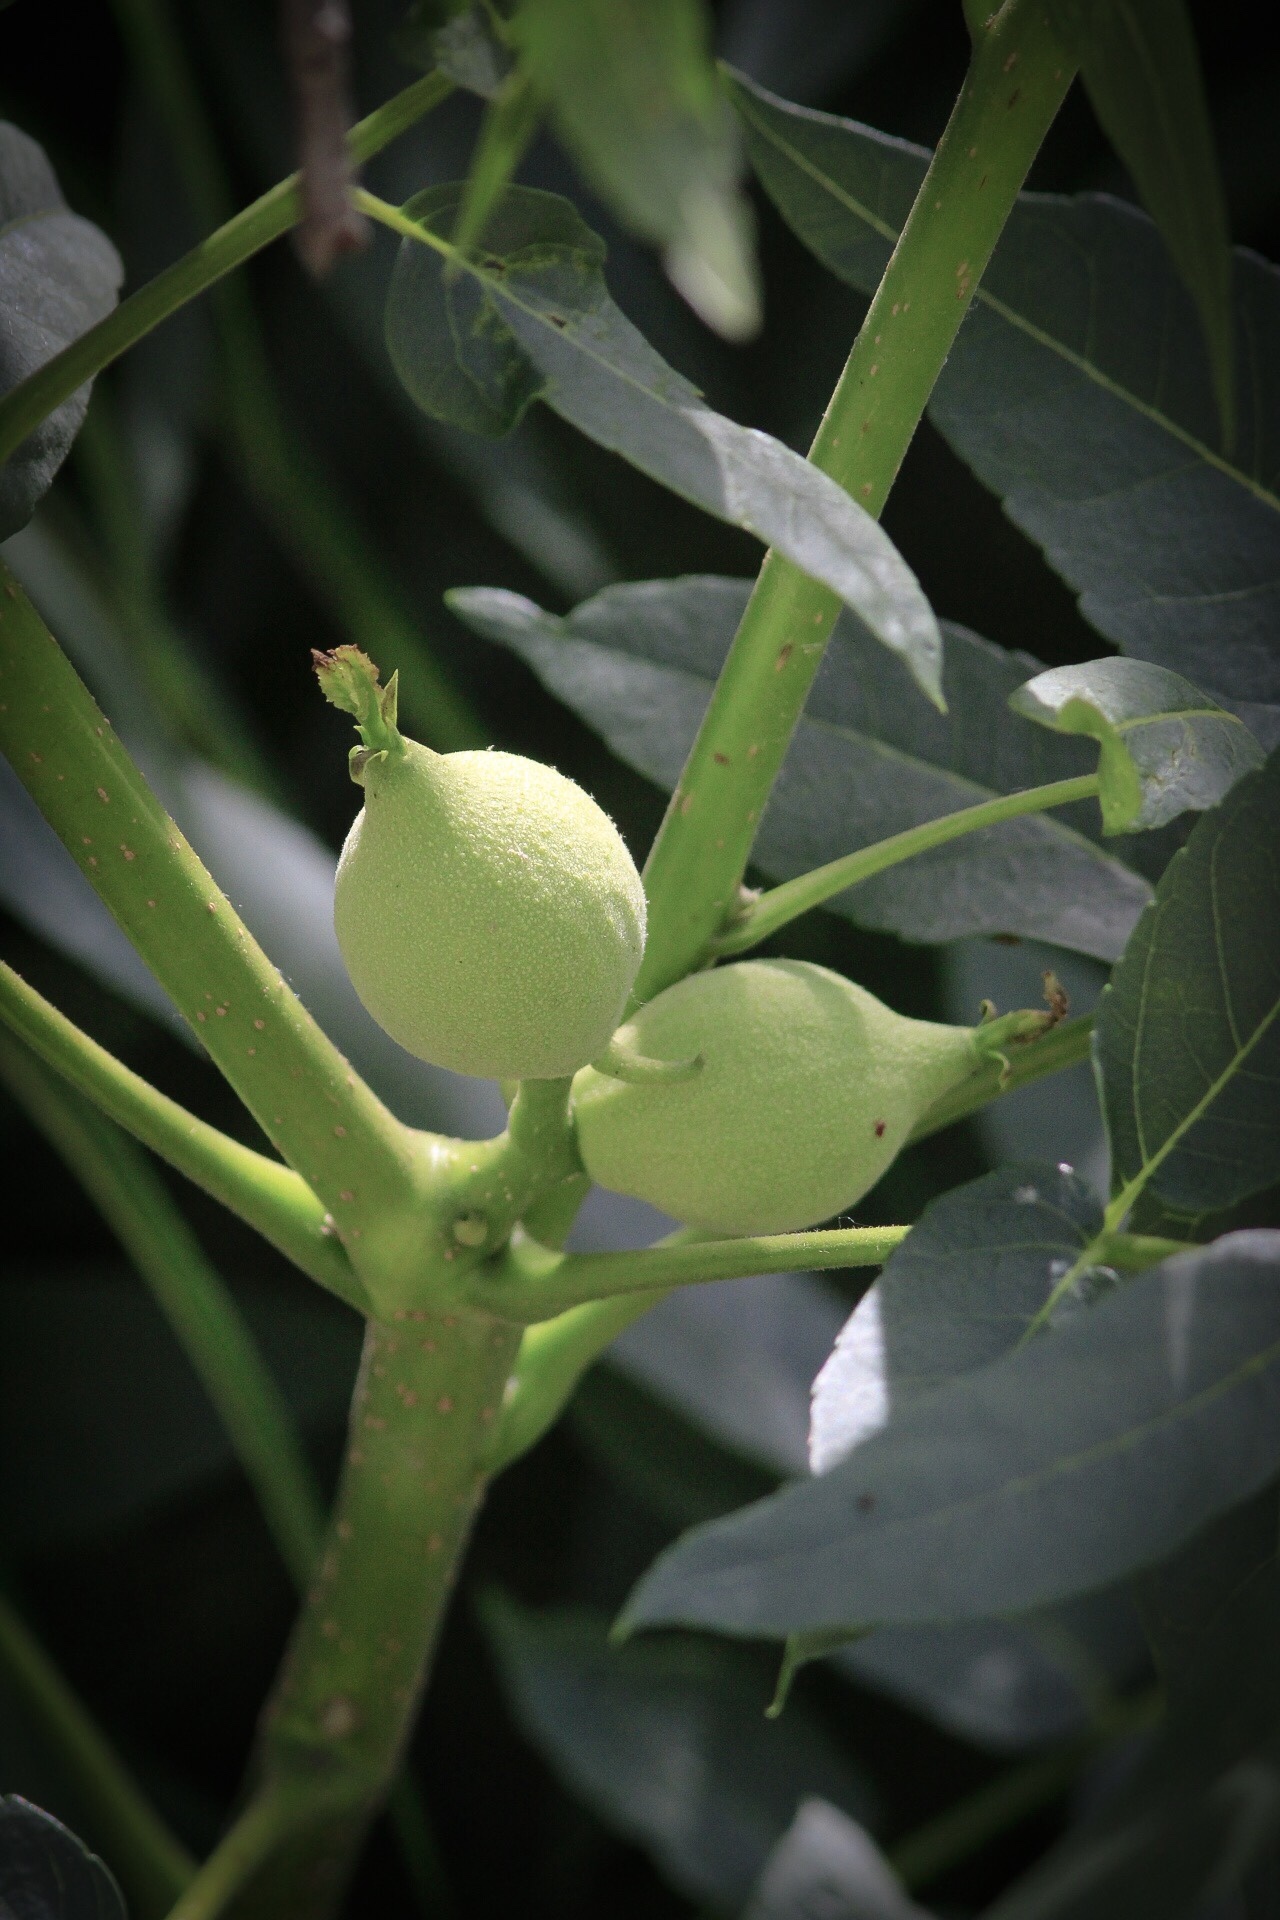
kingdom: Plantae
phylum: Tracheophyta
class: Magnoliopsida
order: Fagales
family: Juglandaceae
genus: Juglans
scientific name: Juglans californica
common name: Southern california black walnut
